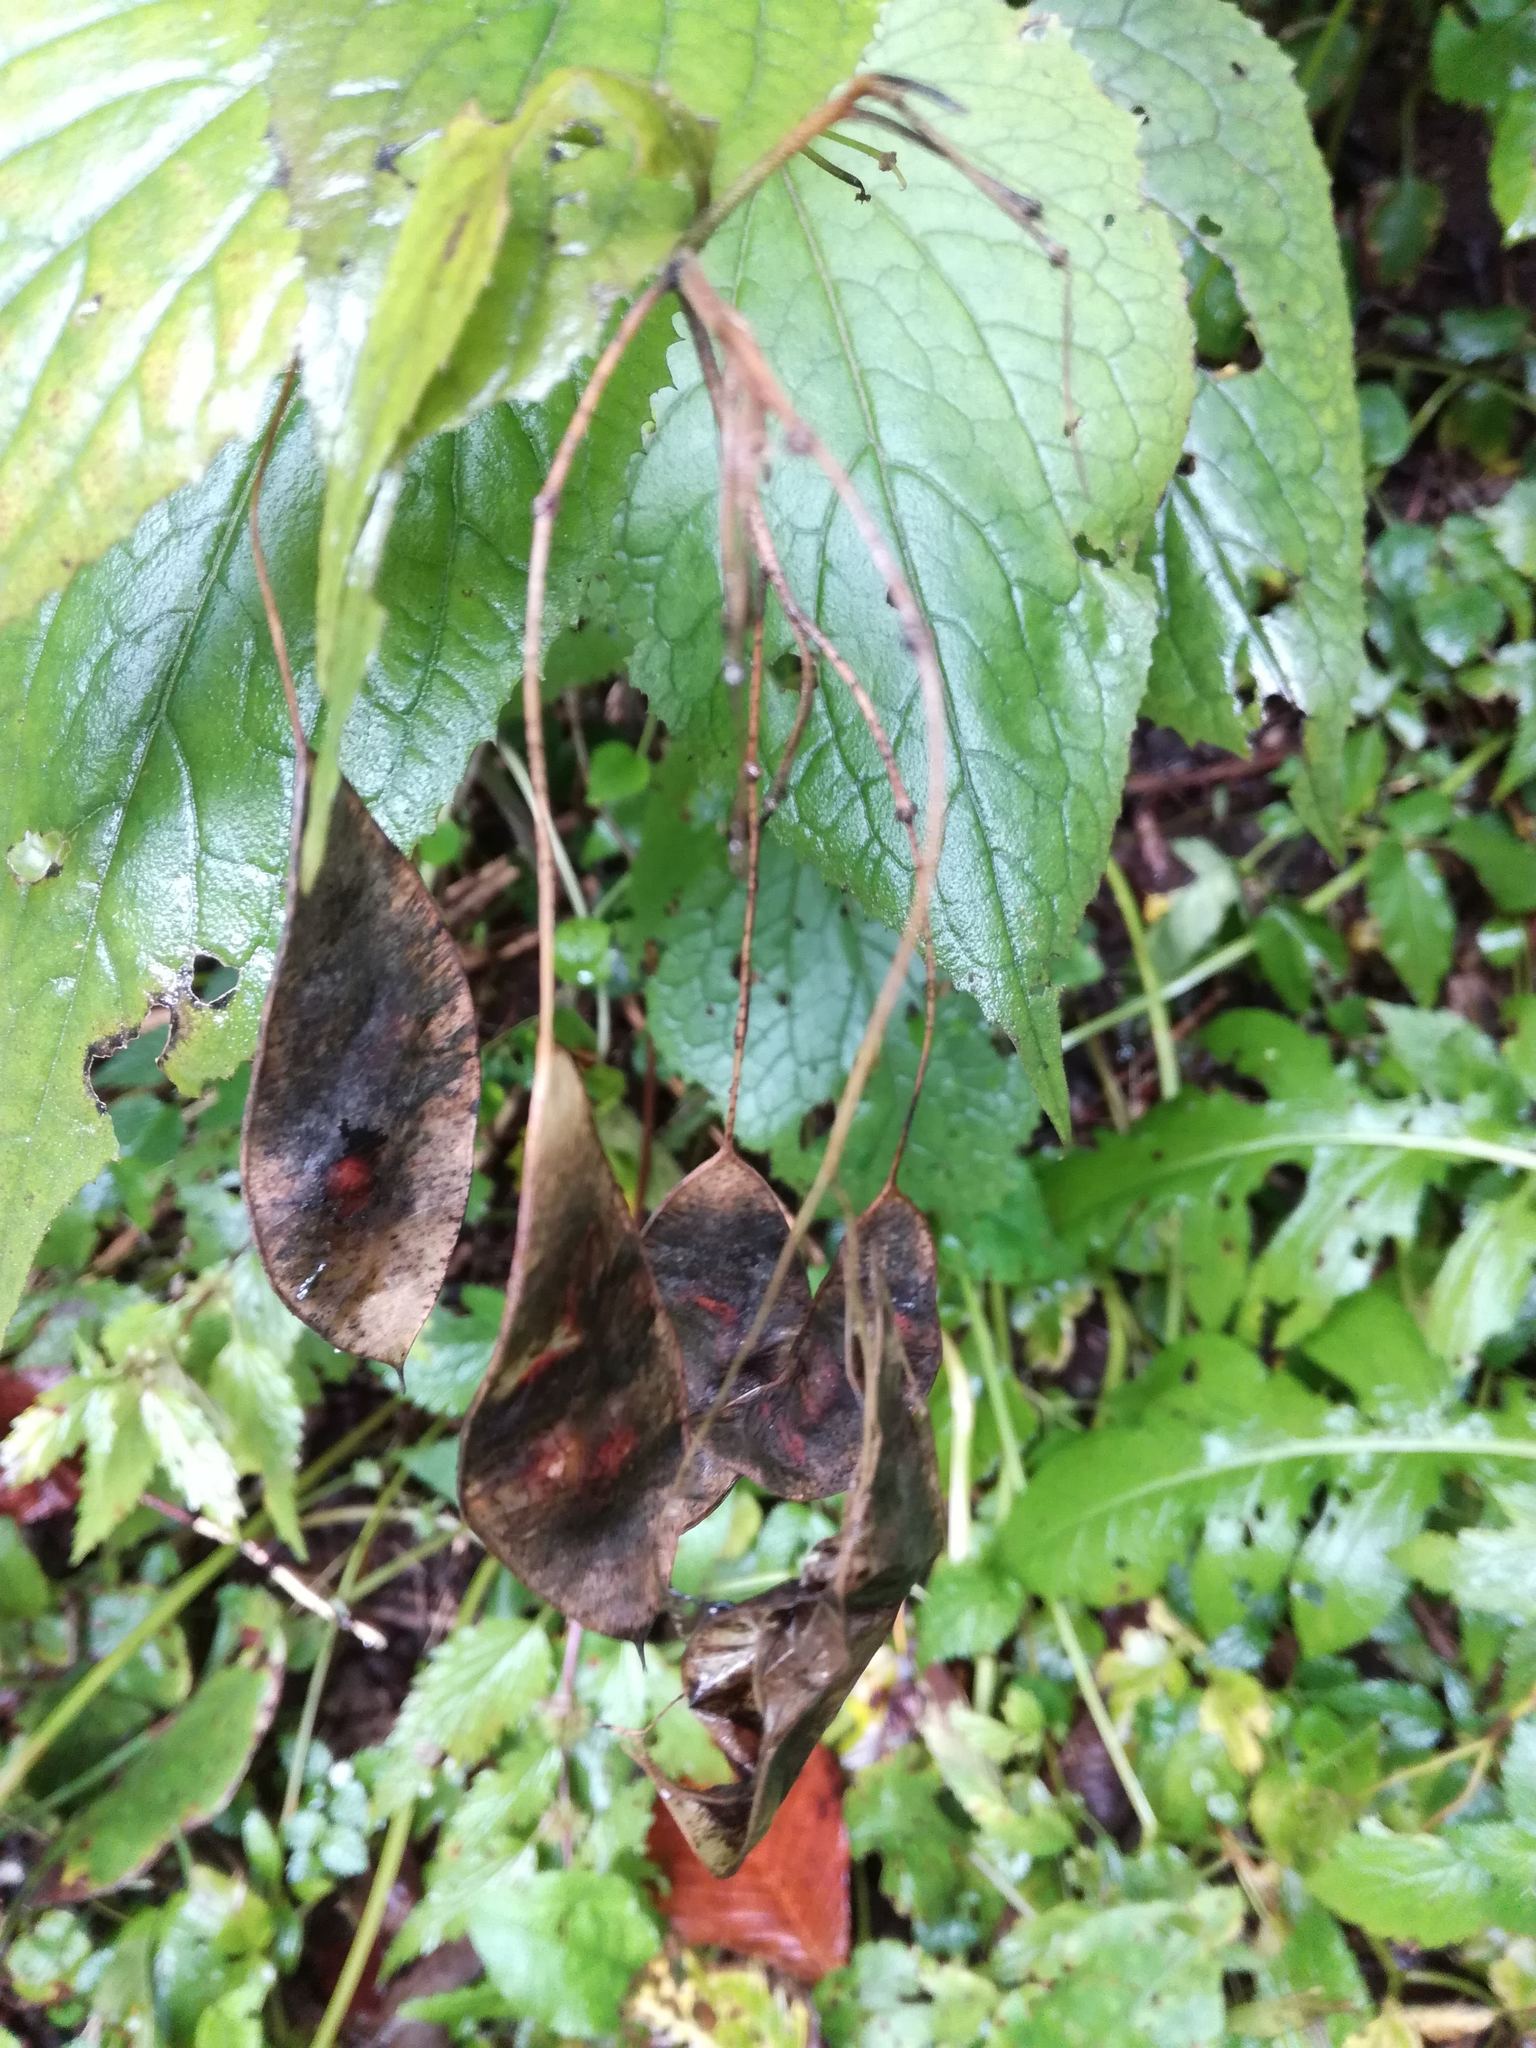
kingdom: Plantae
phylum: Tracheophyta
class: Magnoliopsida
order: Brassicales
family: Brassicaceae
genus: Lunaria
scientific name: Lunaria rediviva
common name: Perennial honesty
